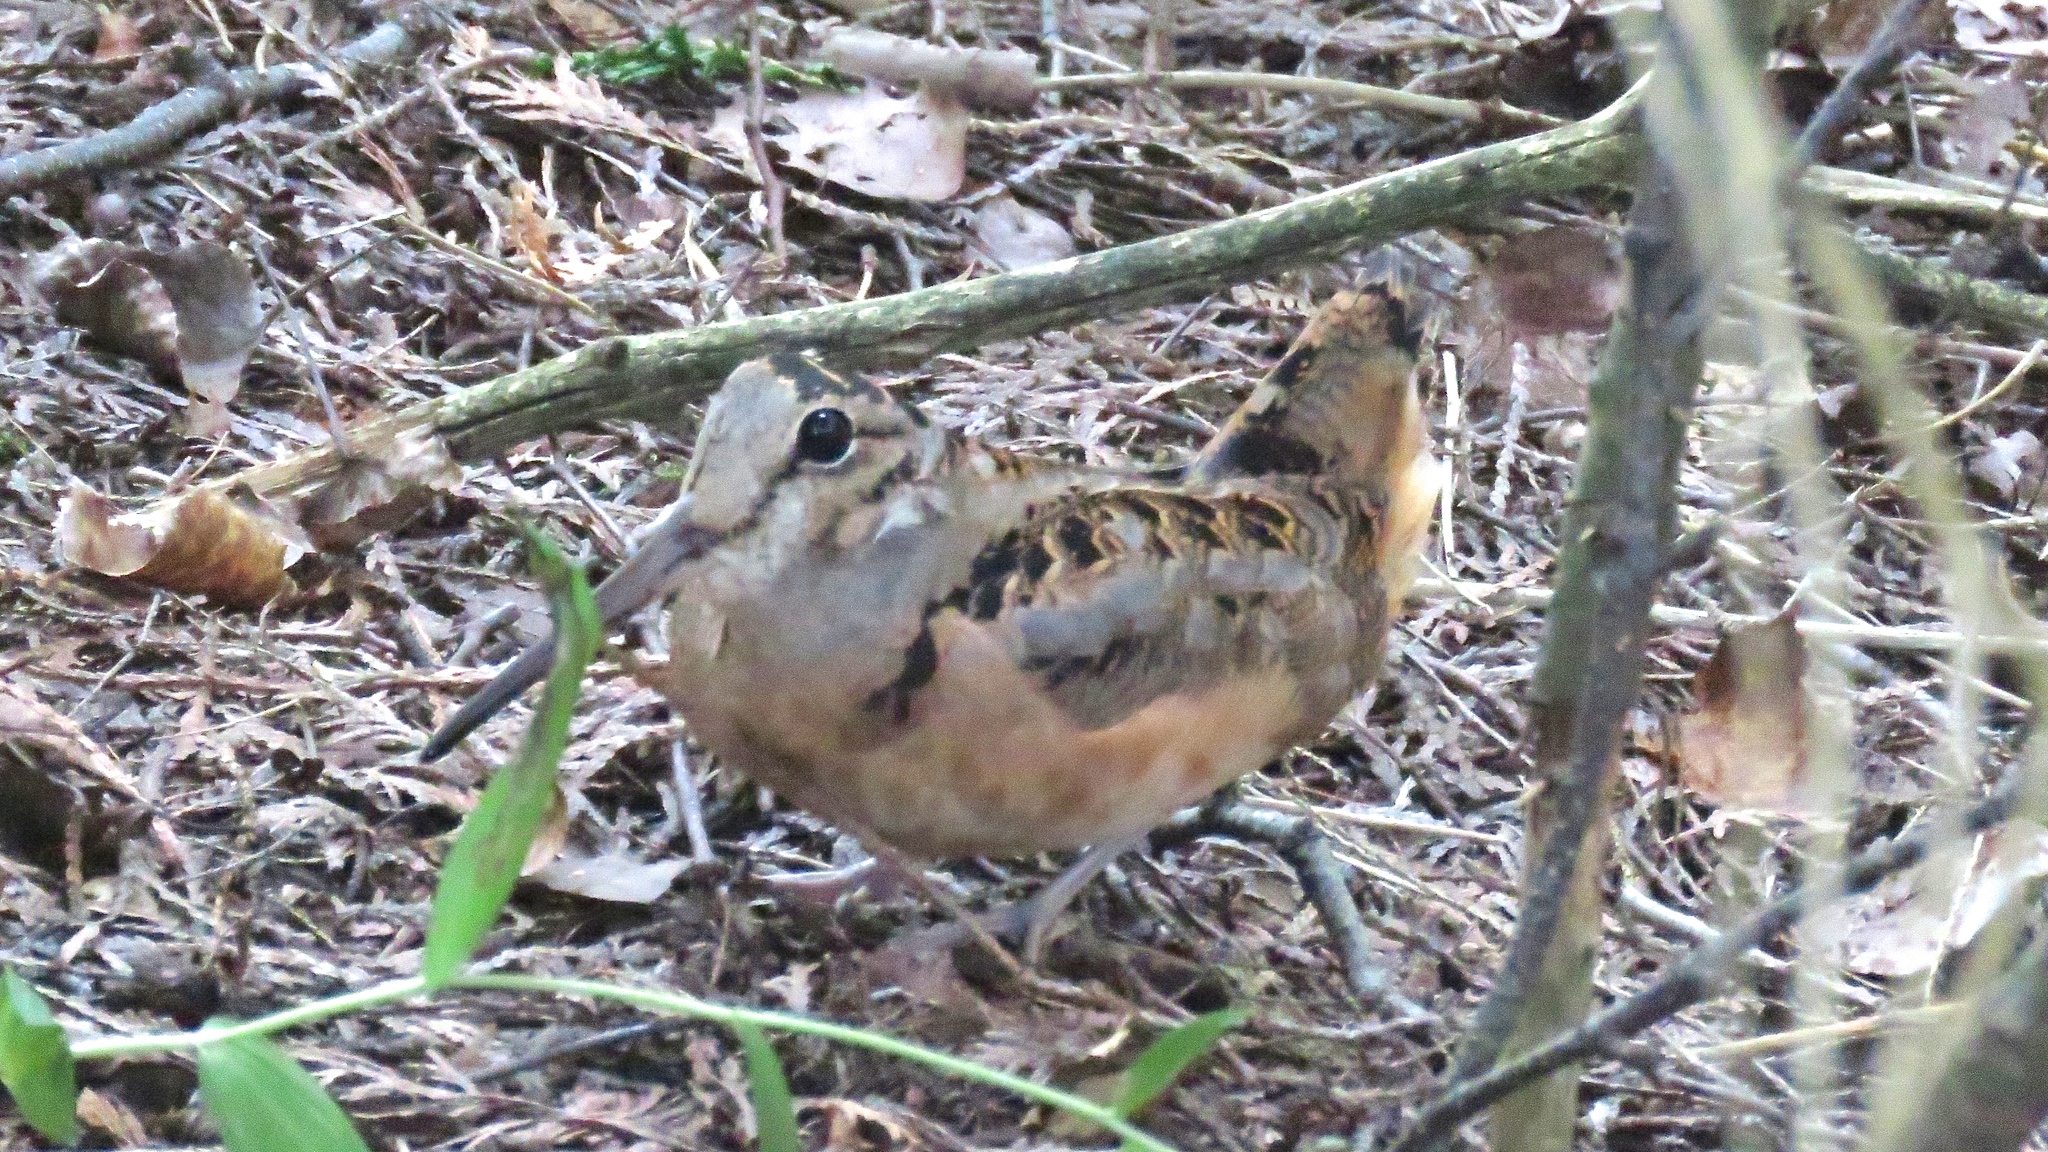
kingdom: Animalia
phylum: Chordata
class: Aves
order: Charadriiformes
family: Scolopacidae
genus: Scolopax
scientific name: Scolopax minor
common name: American woodcock
